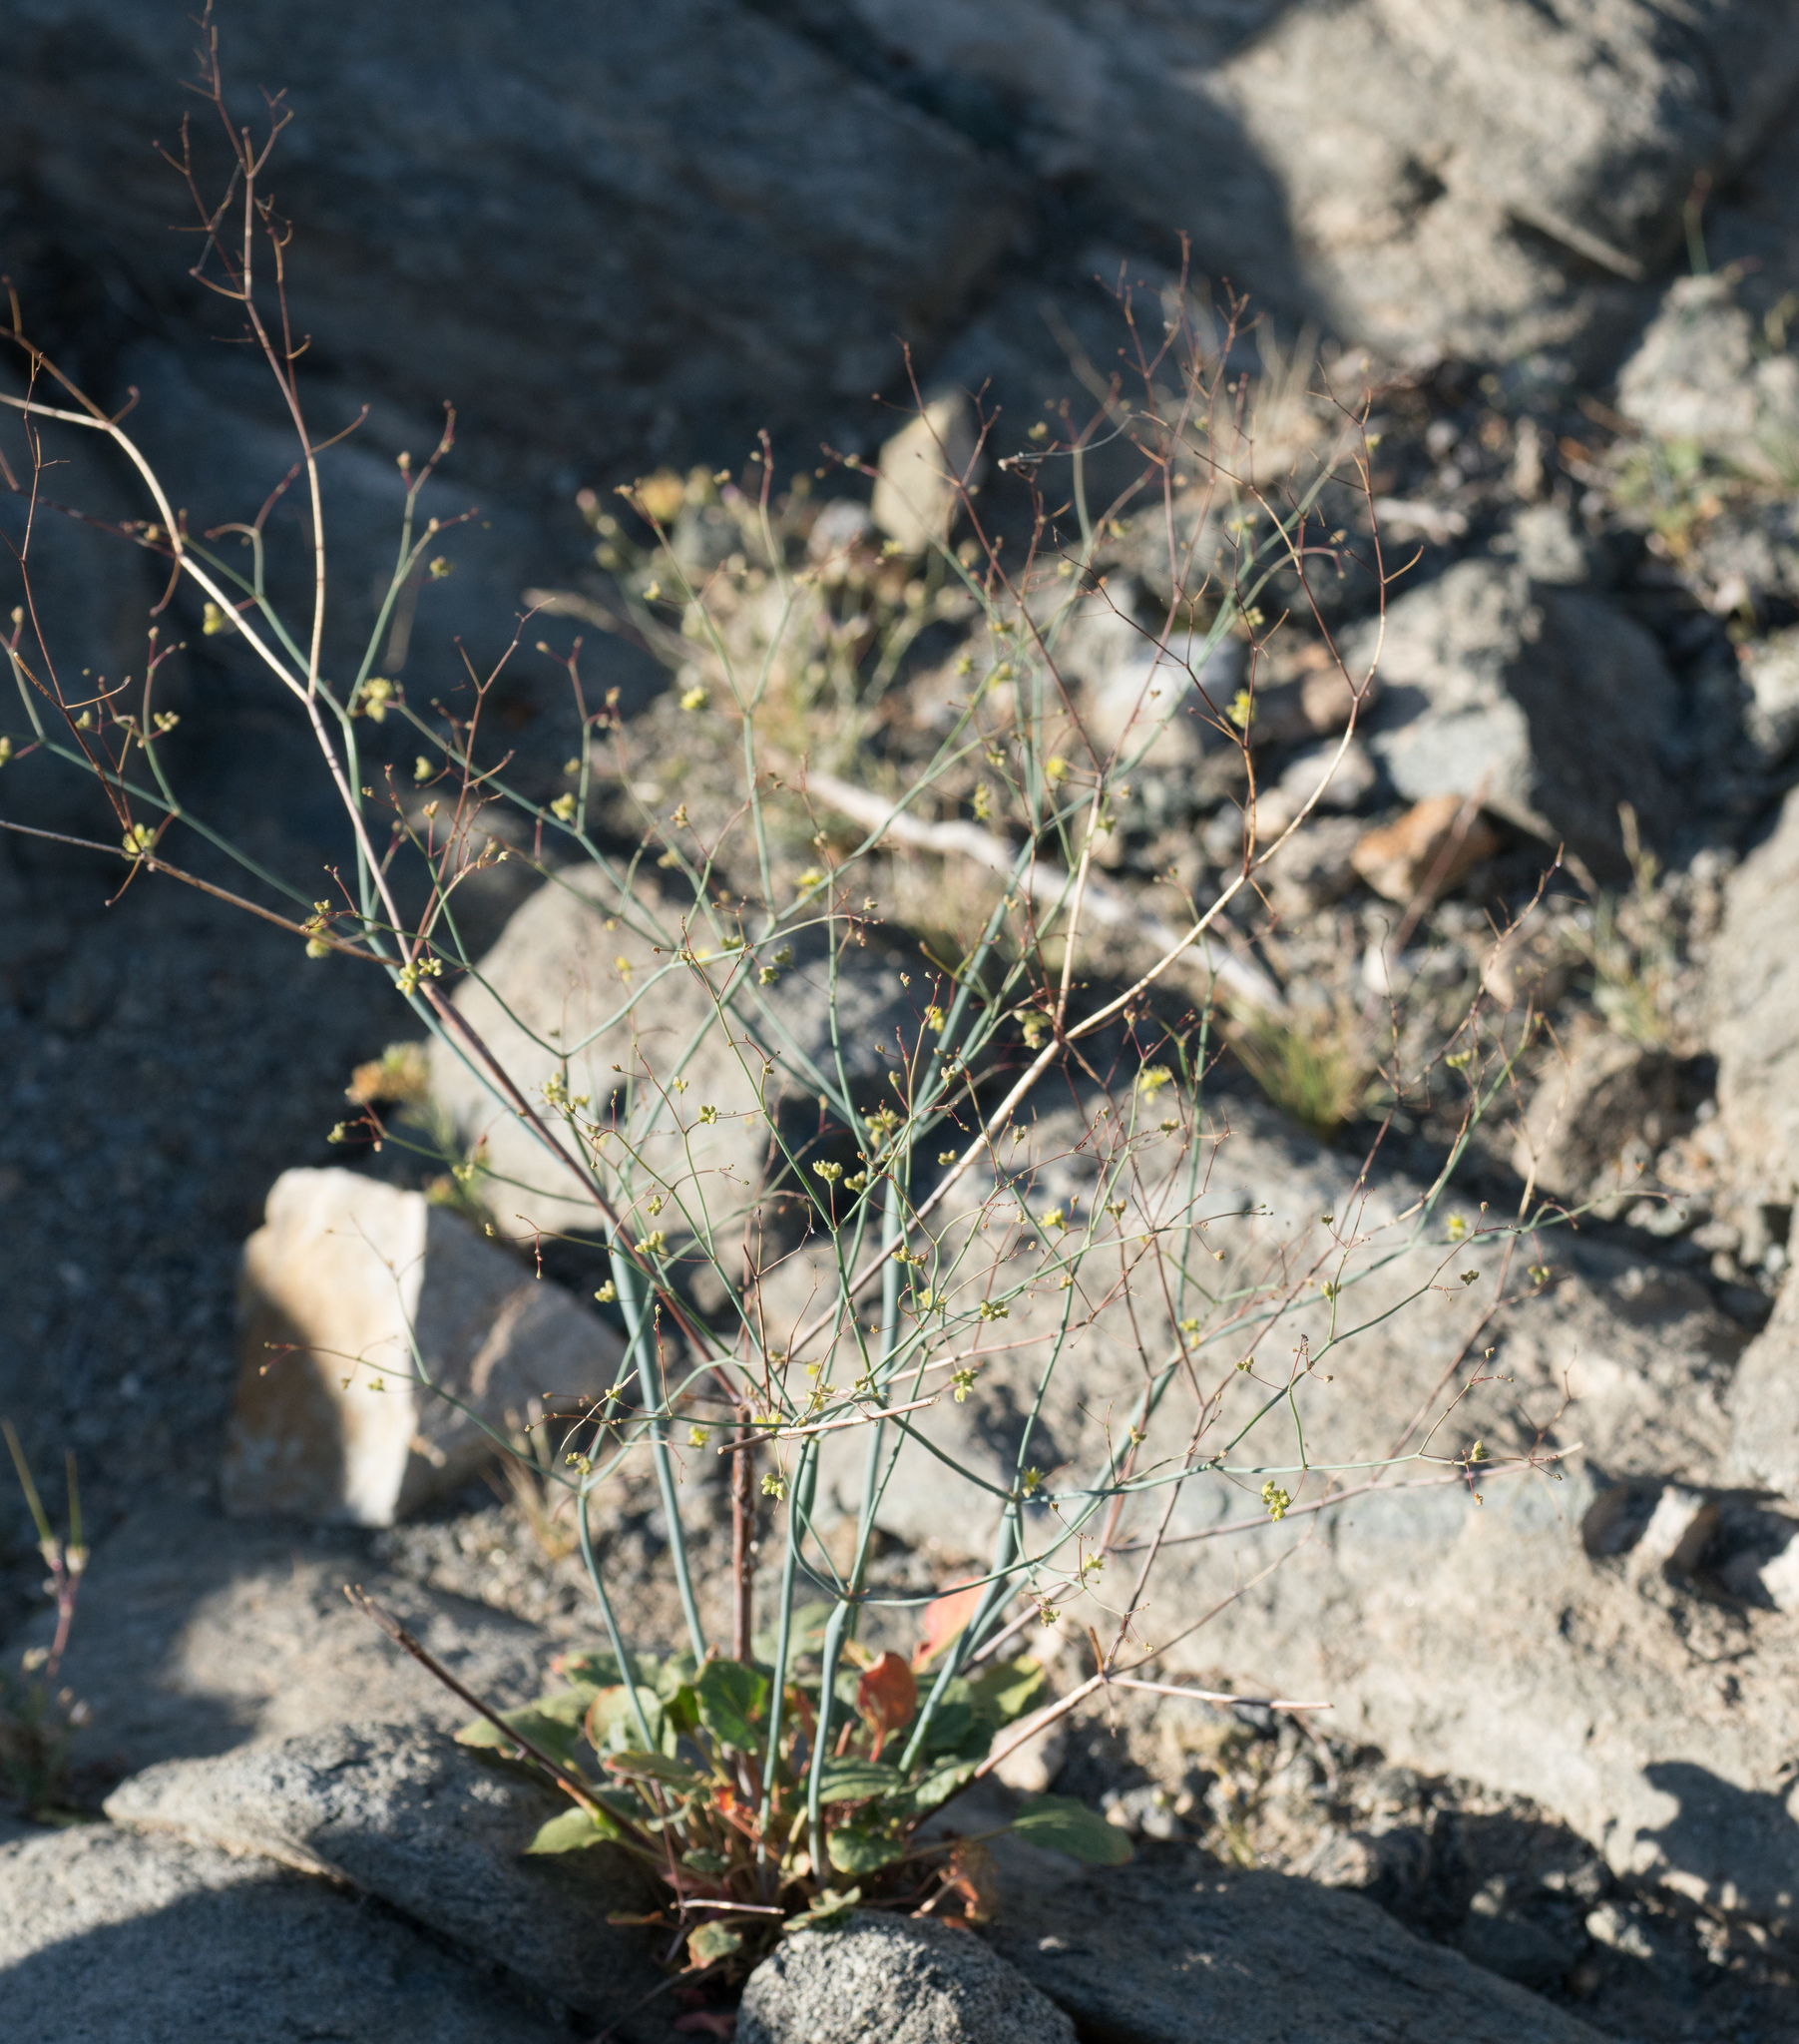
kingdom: Plantae
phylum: Tracheophyta
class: Magnoliopsida
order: Caryophyllales
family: Polygonaceae
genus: Eriogonum
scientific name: Eriogonum inflatum
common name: Desert trumpet
